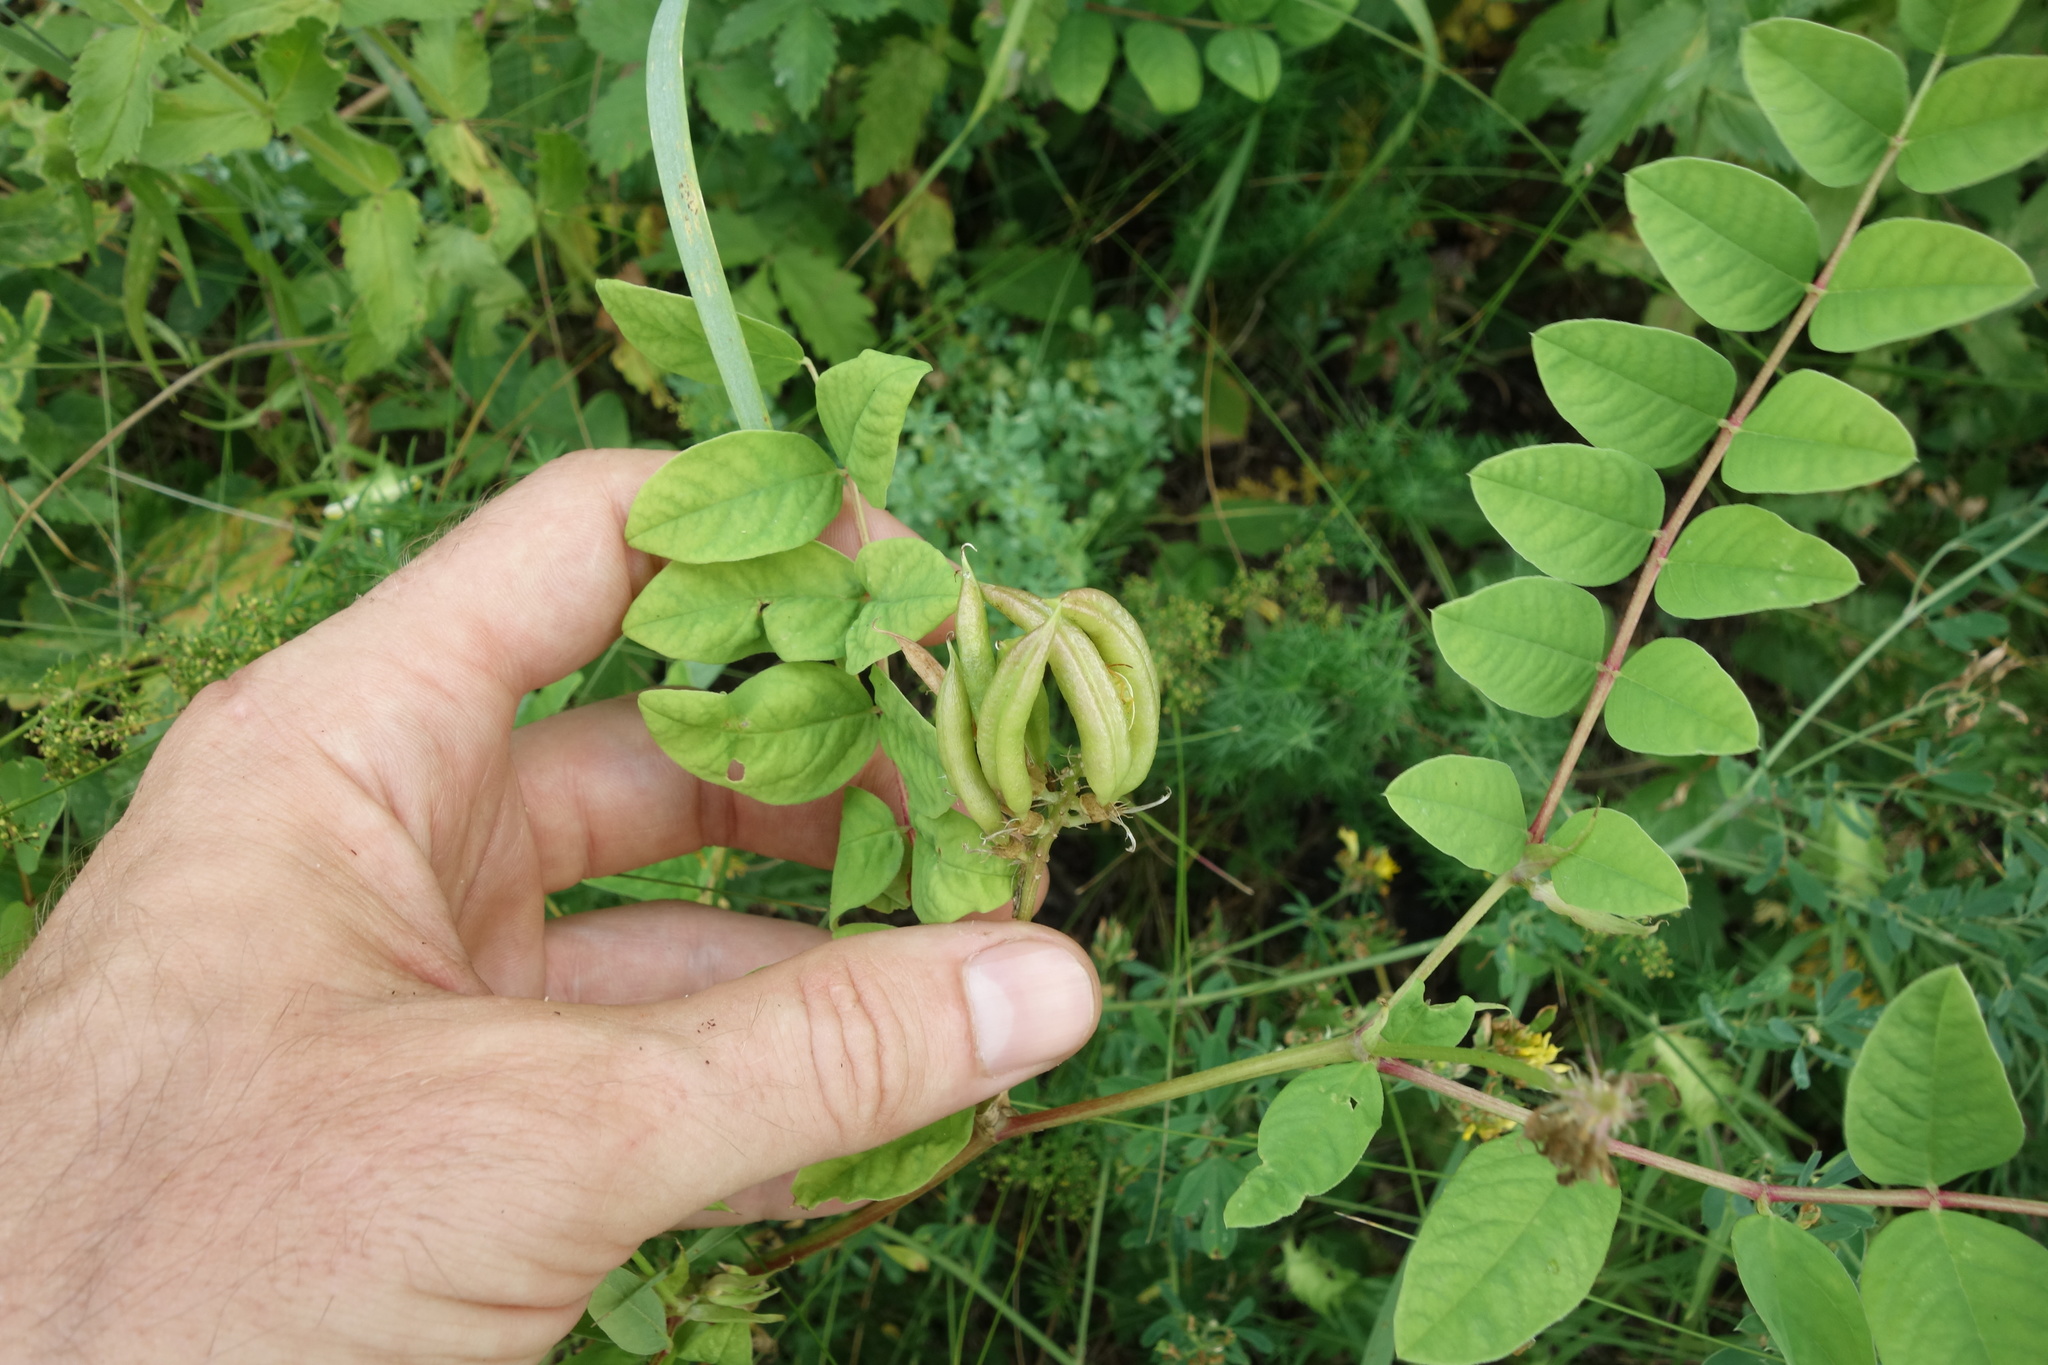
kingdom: Plantae
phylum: Tracheophyta
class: Magnoliopsida
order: Fabales
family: Fabaceae
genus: Astragalus
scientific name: Astragalus glycyphyllos
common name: Wild liquorice
